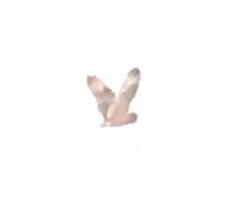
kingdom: Animalia
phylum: Chordata
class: Aves
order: Strigiformes
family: Strigidae
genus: Asio
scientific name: Asio flammeus
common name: Short-eared owl
